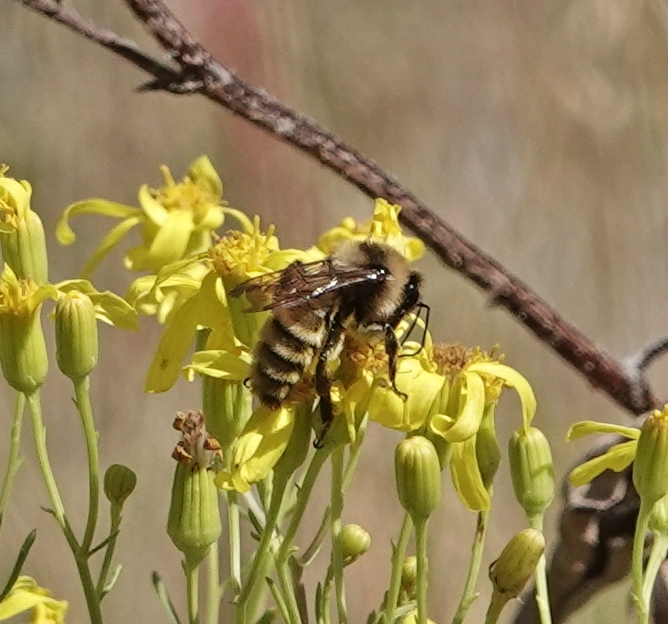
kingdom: Animalia
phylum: Arthropoda
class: Insecta
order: Hymenoptera
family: Apidae
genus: Bombus
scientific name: Bombus pensylvanicus
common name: Bumble bee
